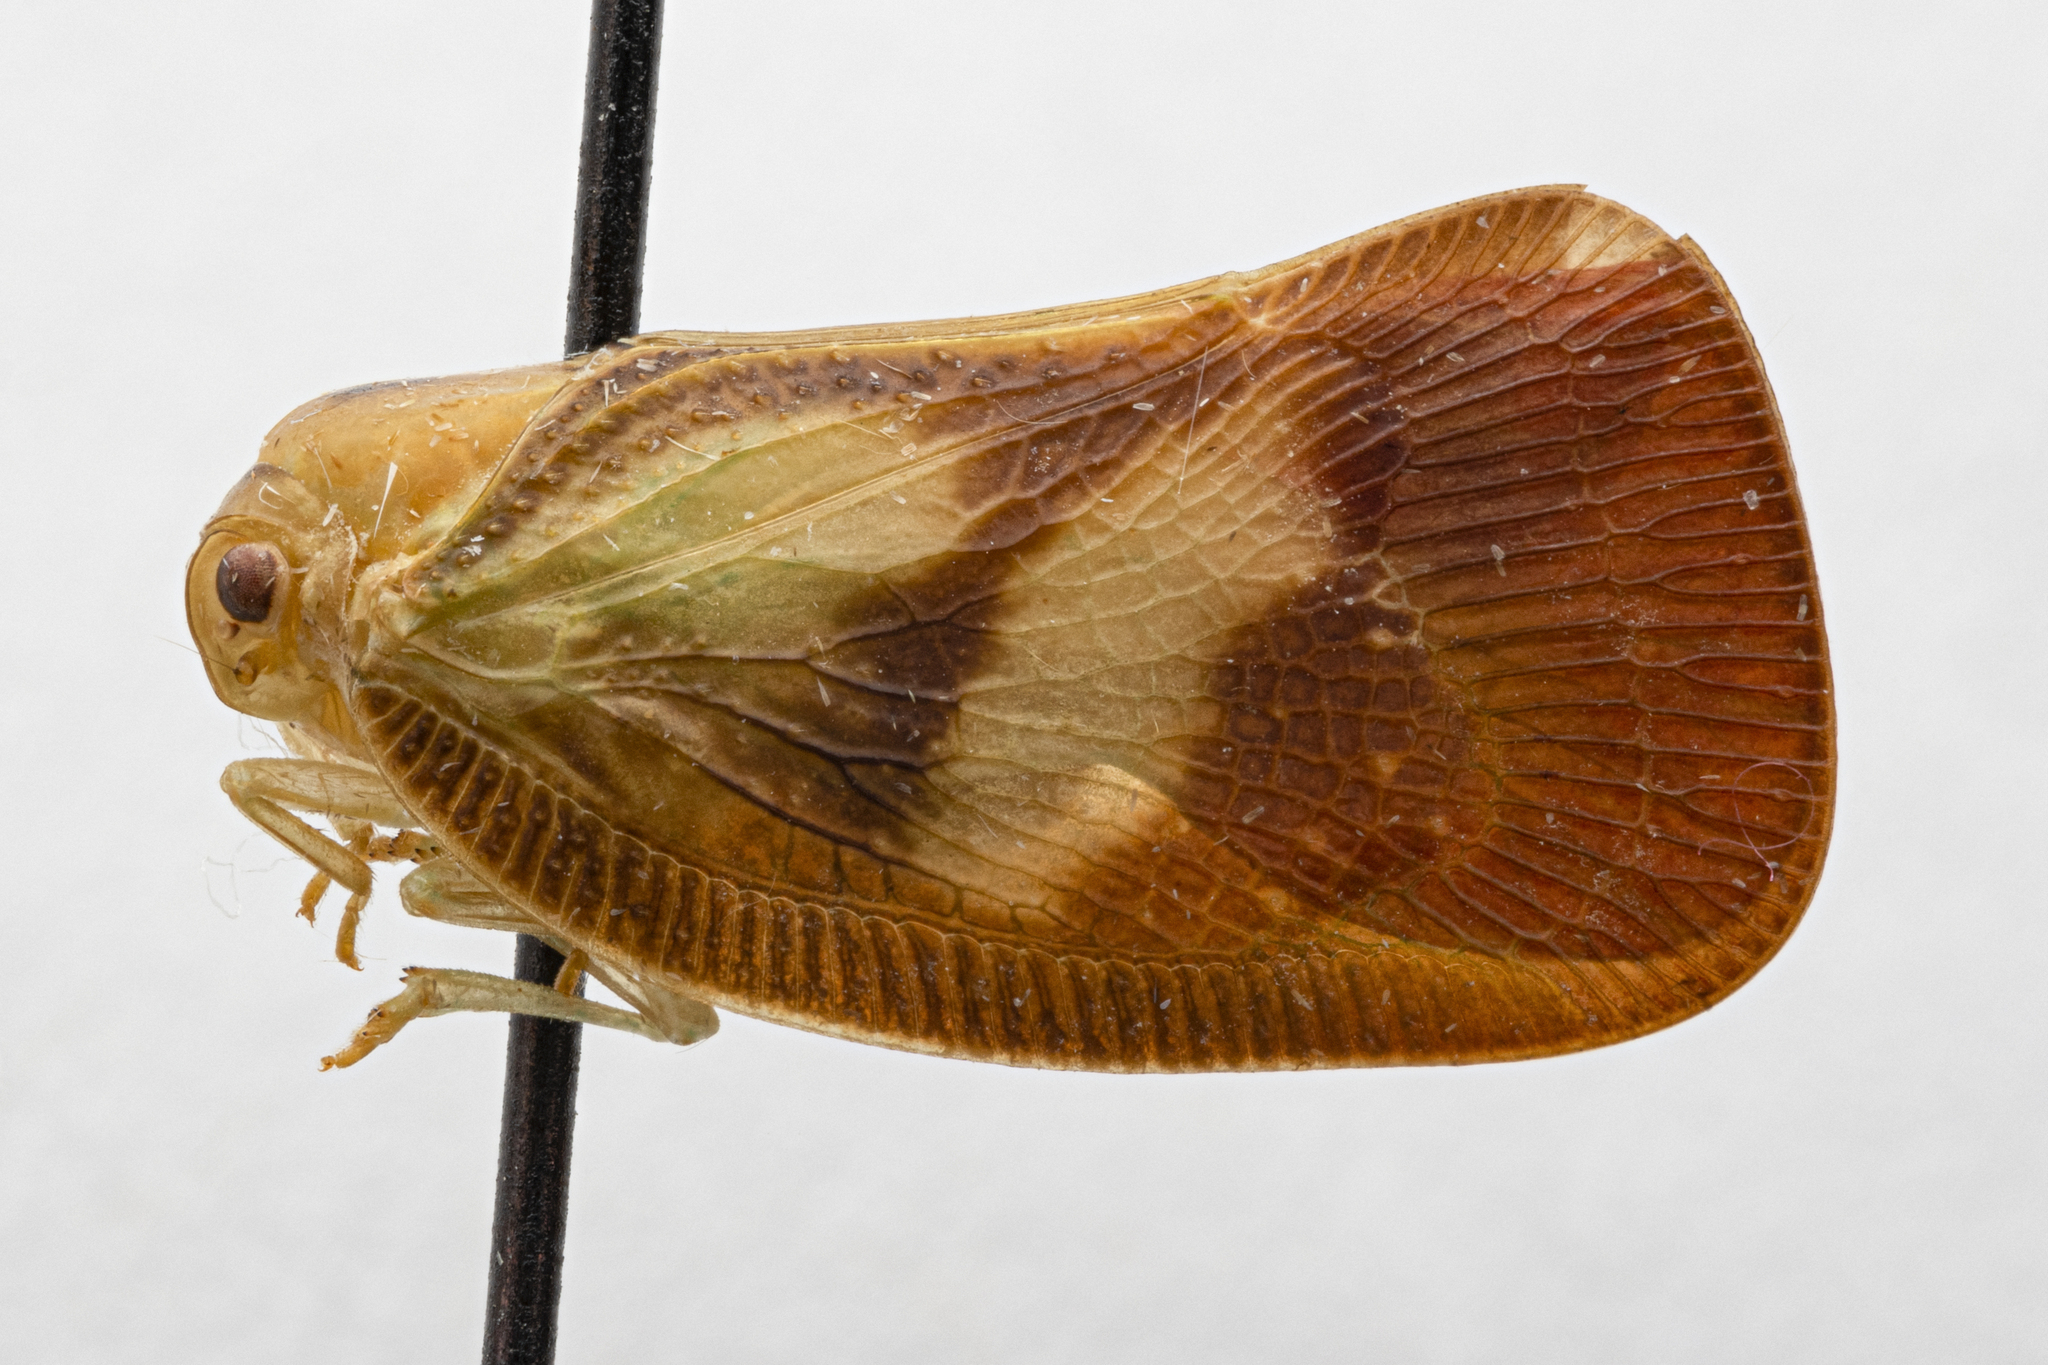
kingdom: Animalia
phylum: Arthropoda
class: Insecta
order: Hemiptera
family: Flatidae
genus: Ormenis
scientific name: Ormenis antoniae
